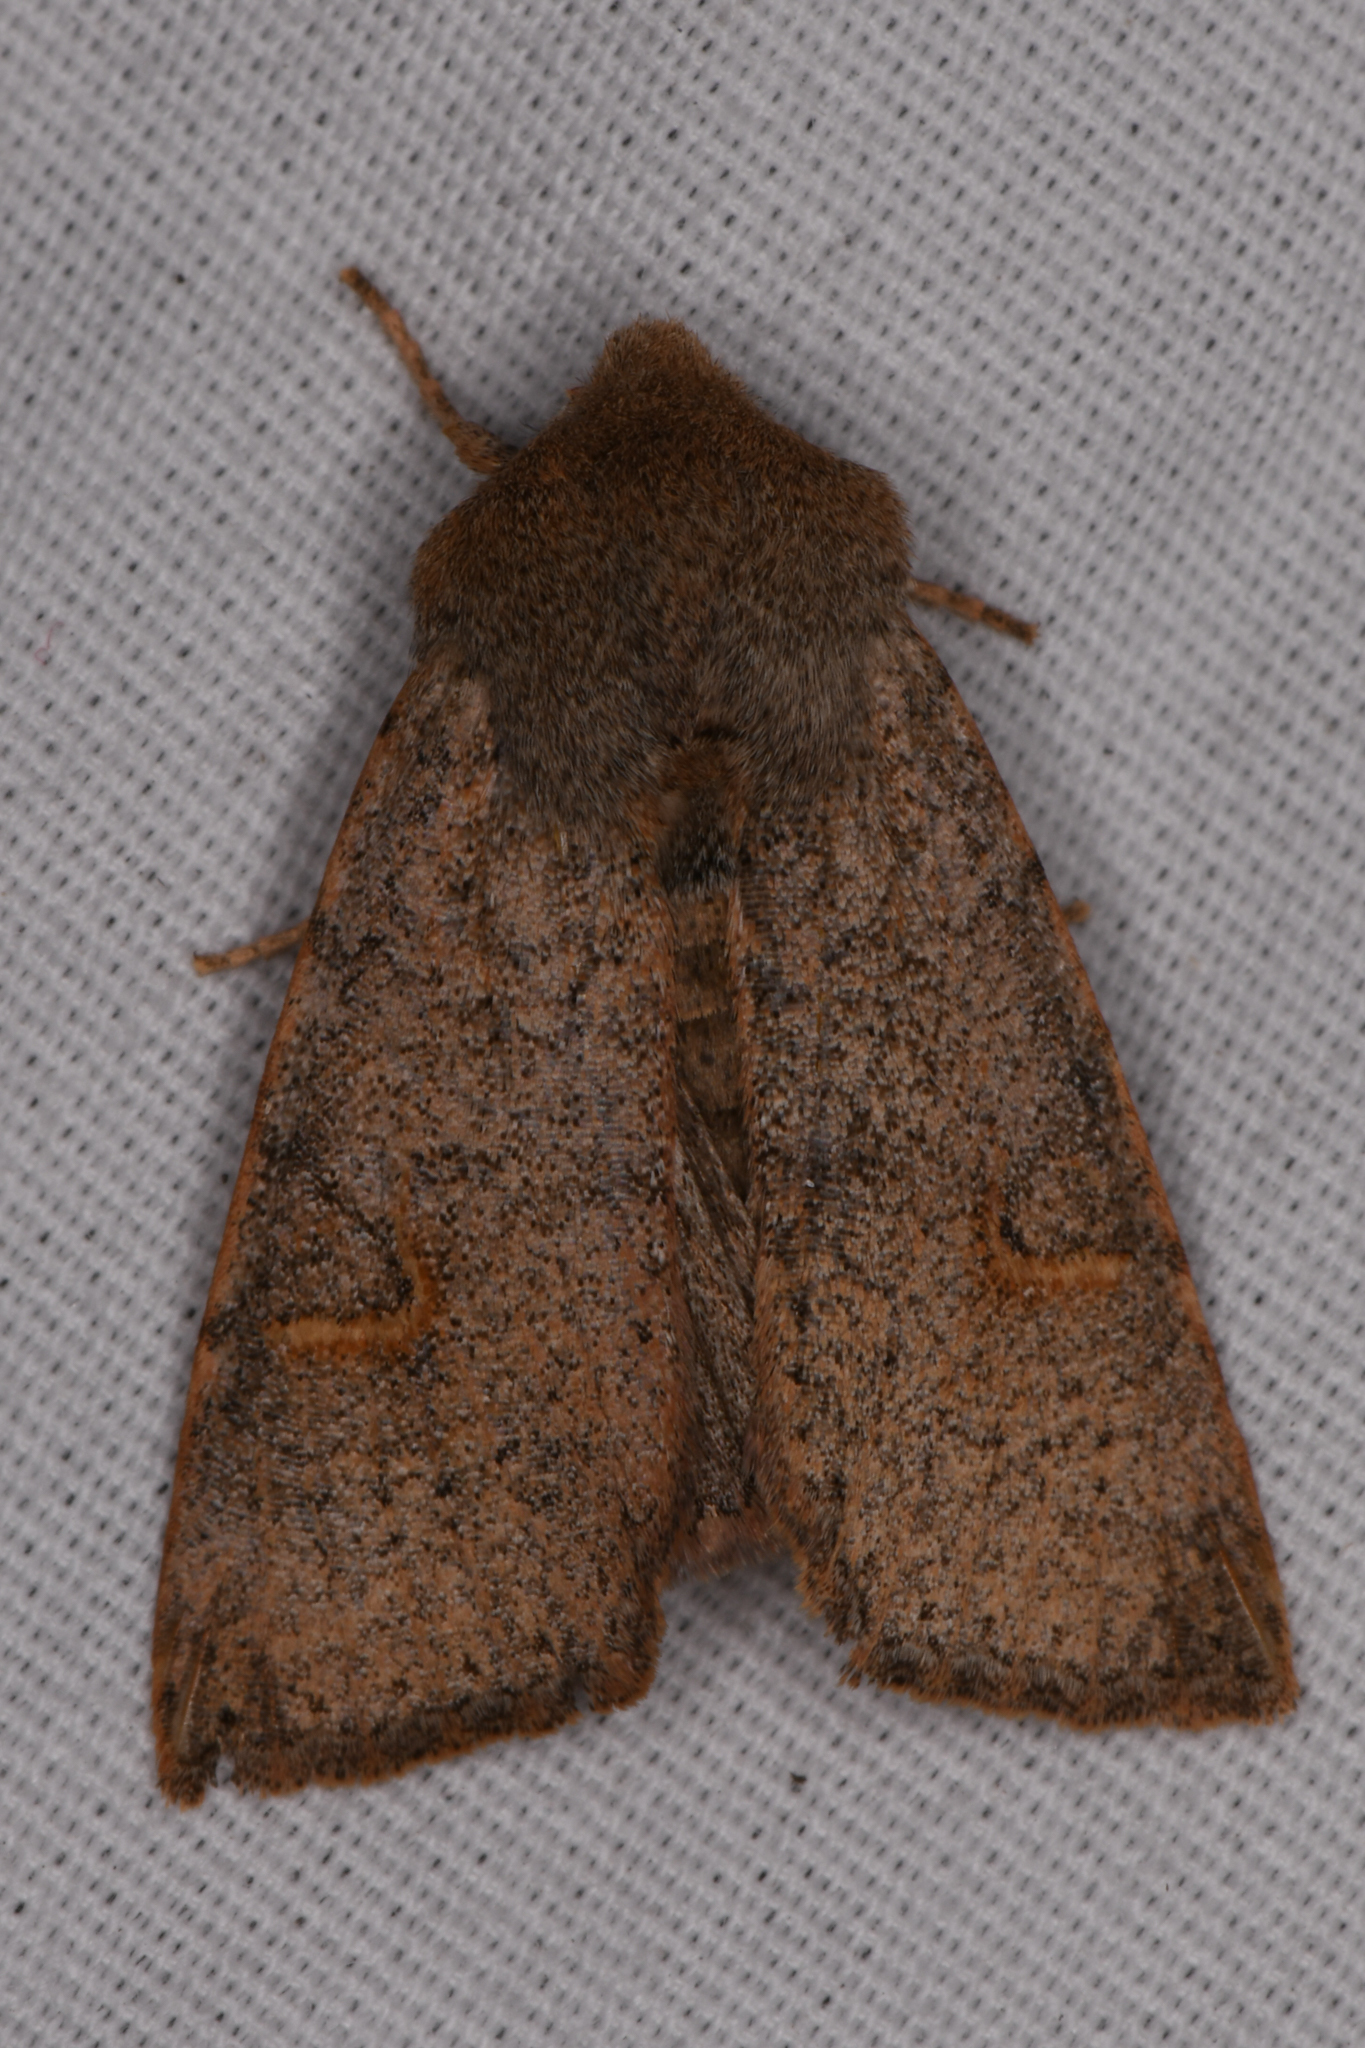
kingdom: Animalia
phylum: Arthropoda
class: Insecta
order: Lepidoptera
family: Noctuidae
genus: Perigonica
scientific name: Perigonica pectinata
